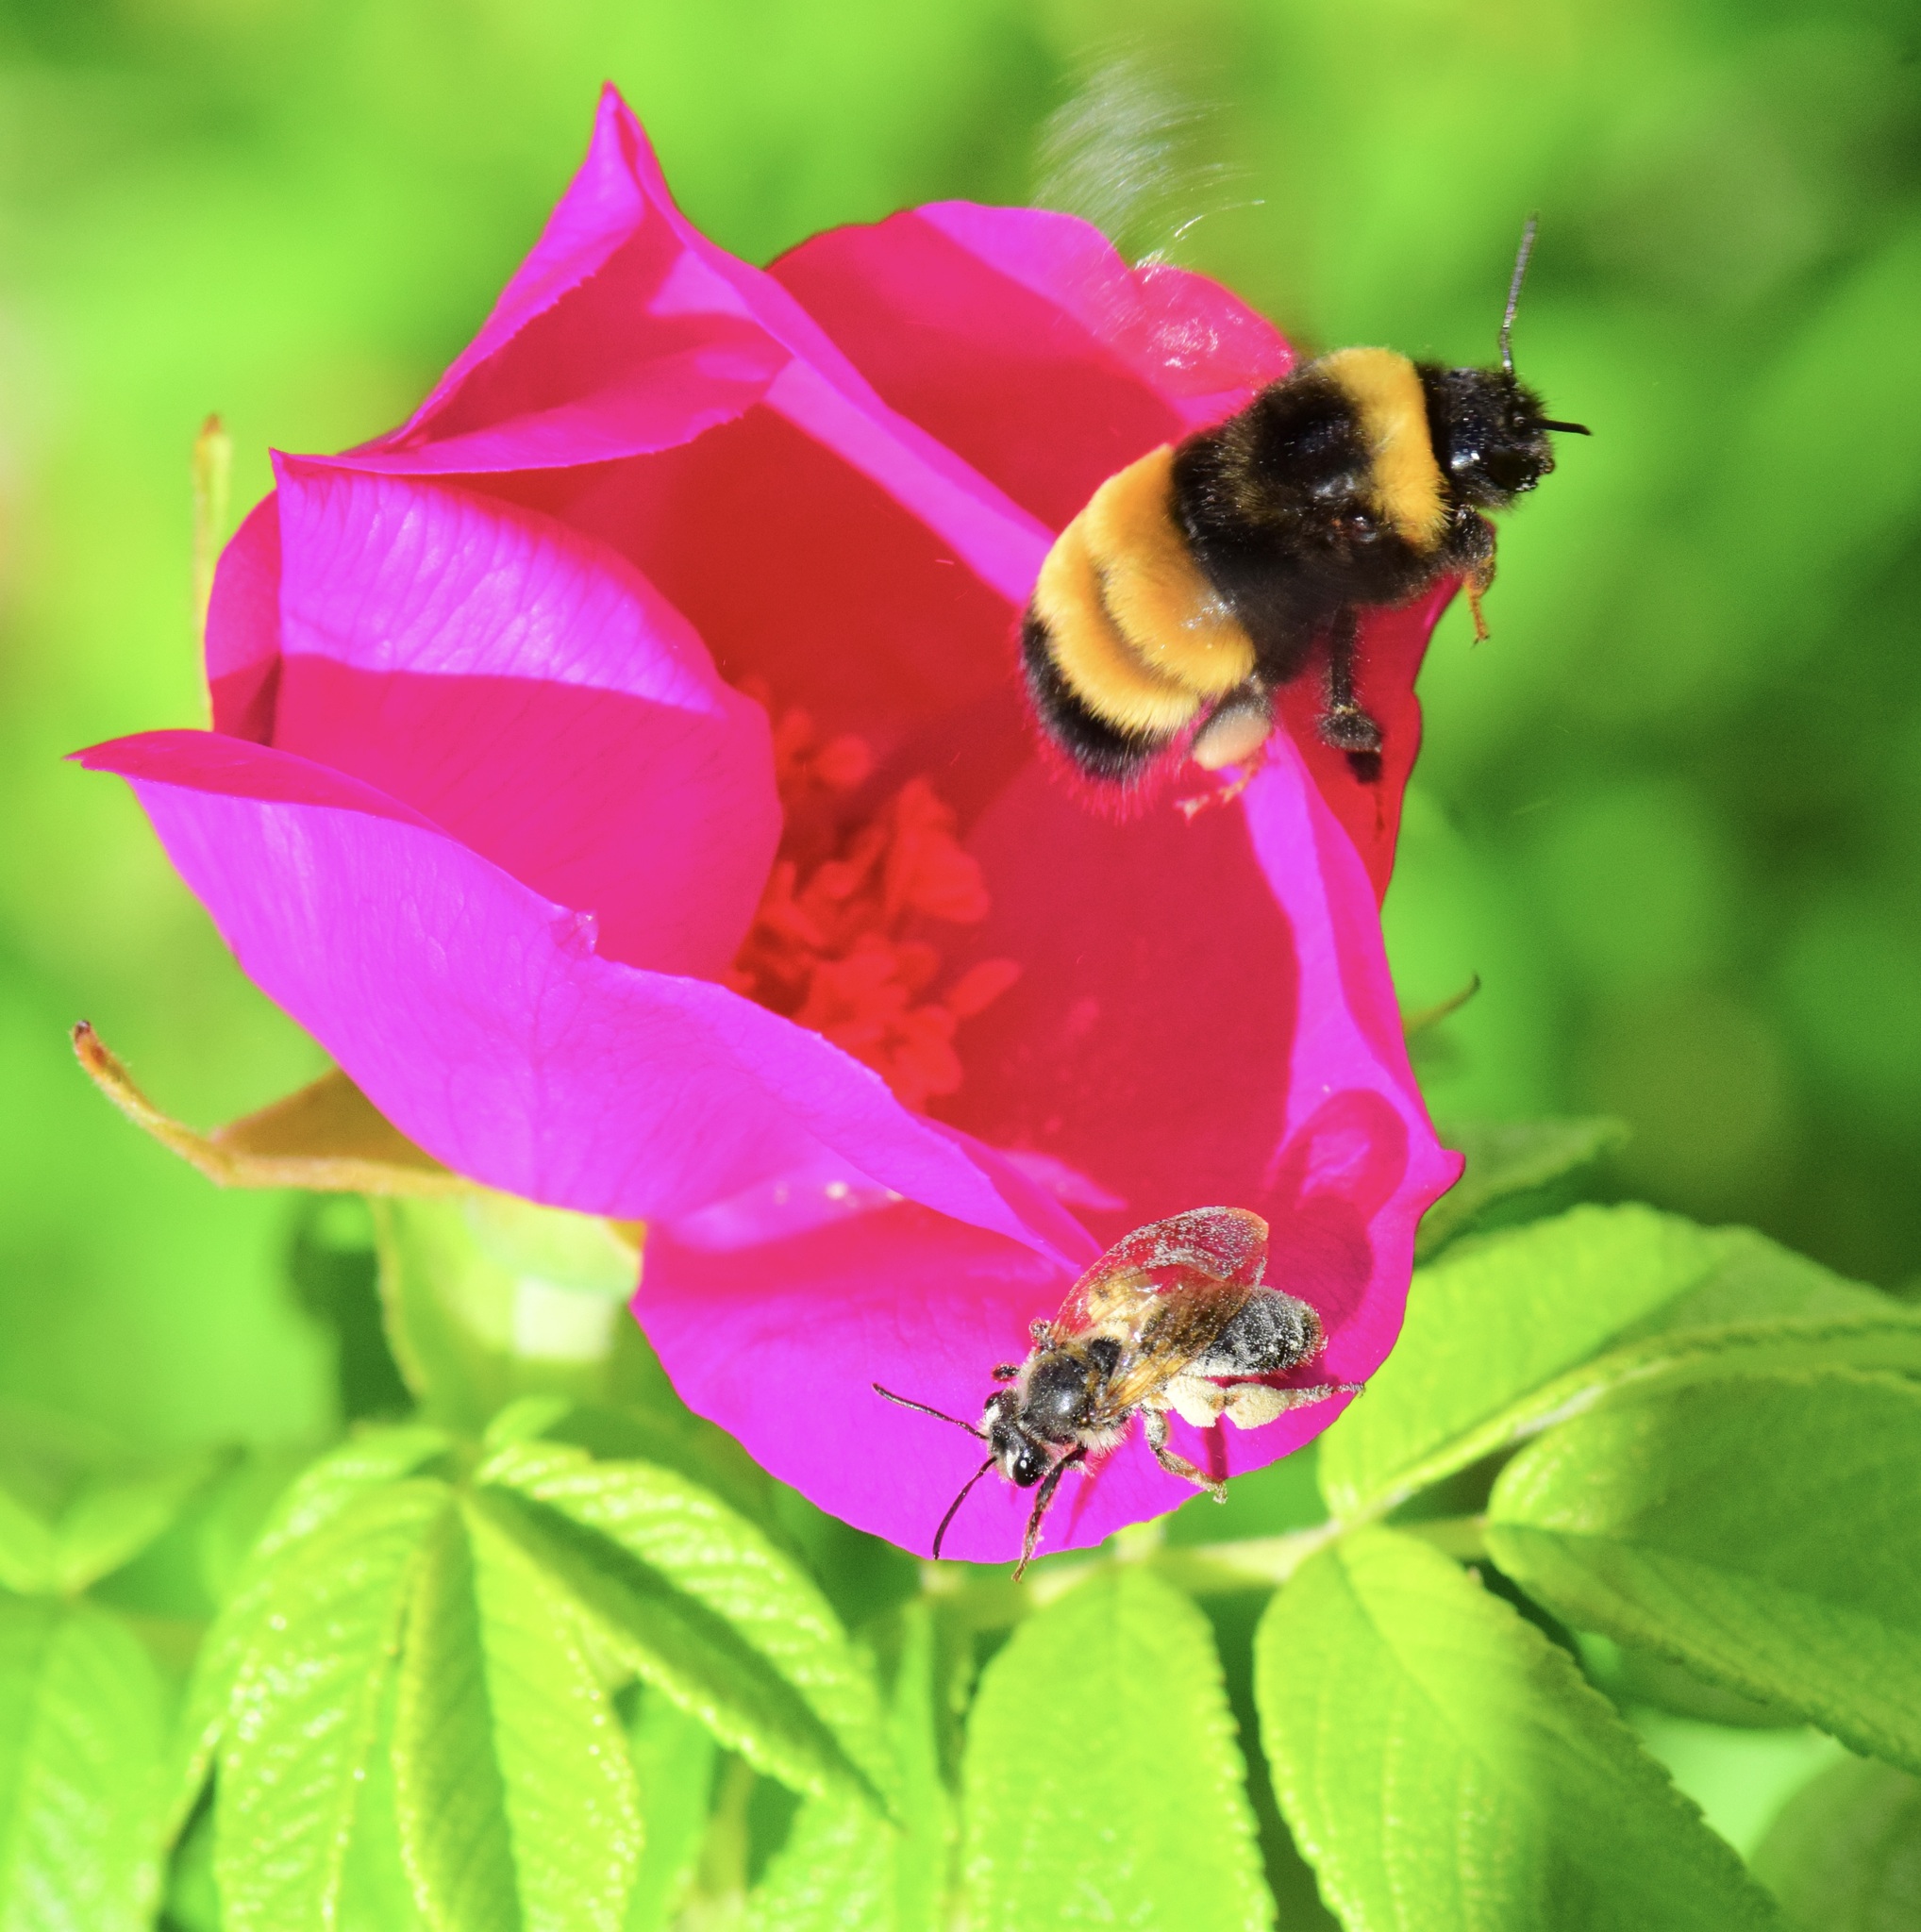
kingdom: Animalia
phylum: Arthropoda
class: Insecta
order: Hymenoptera
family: Apidae
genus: Bombus
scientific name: Bombus terricola
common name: Yellow-banded bumble bee
